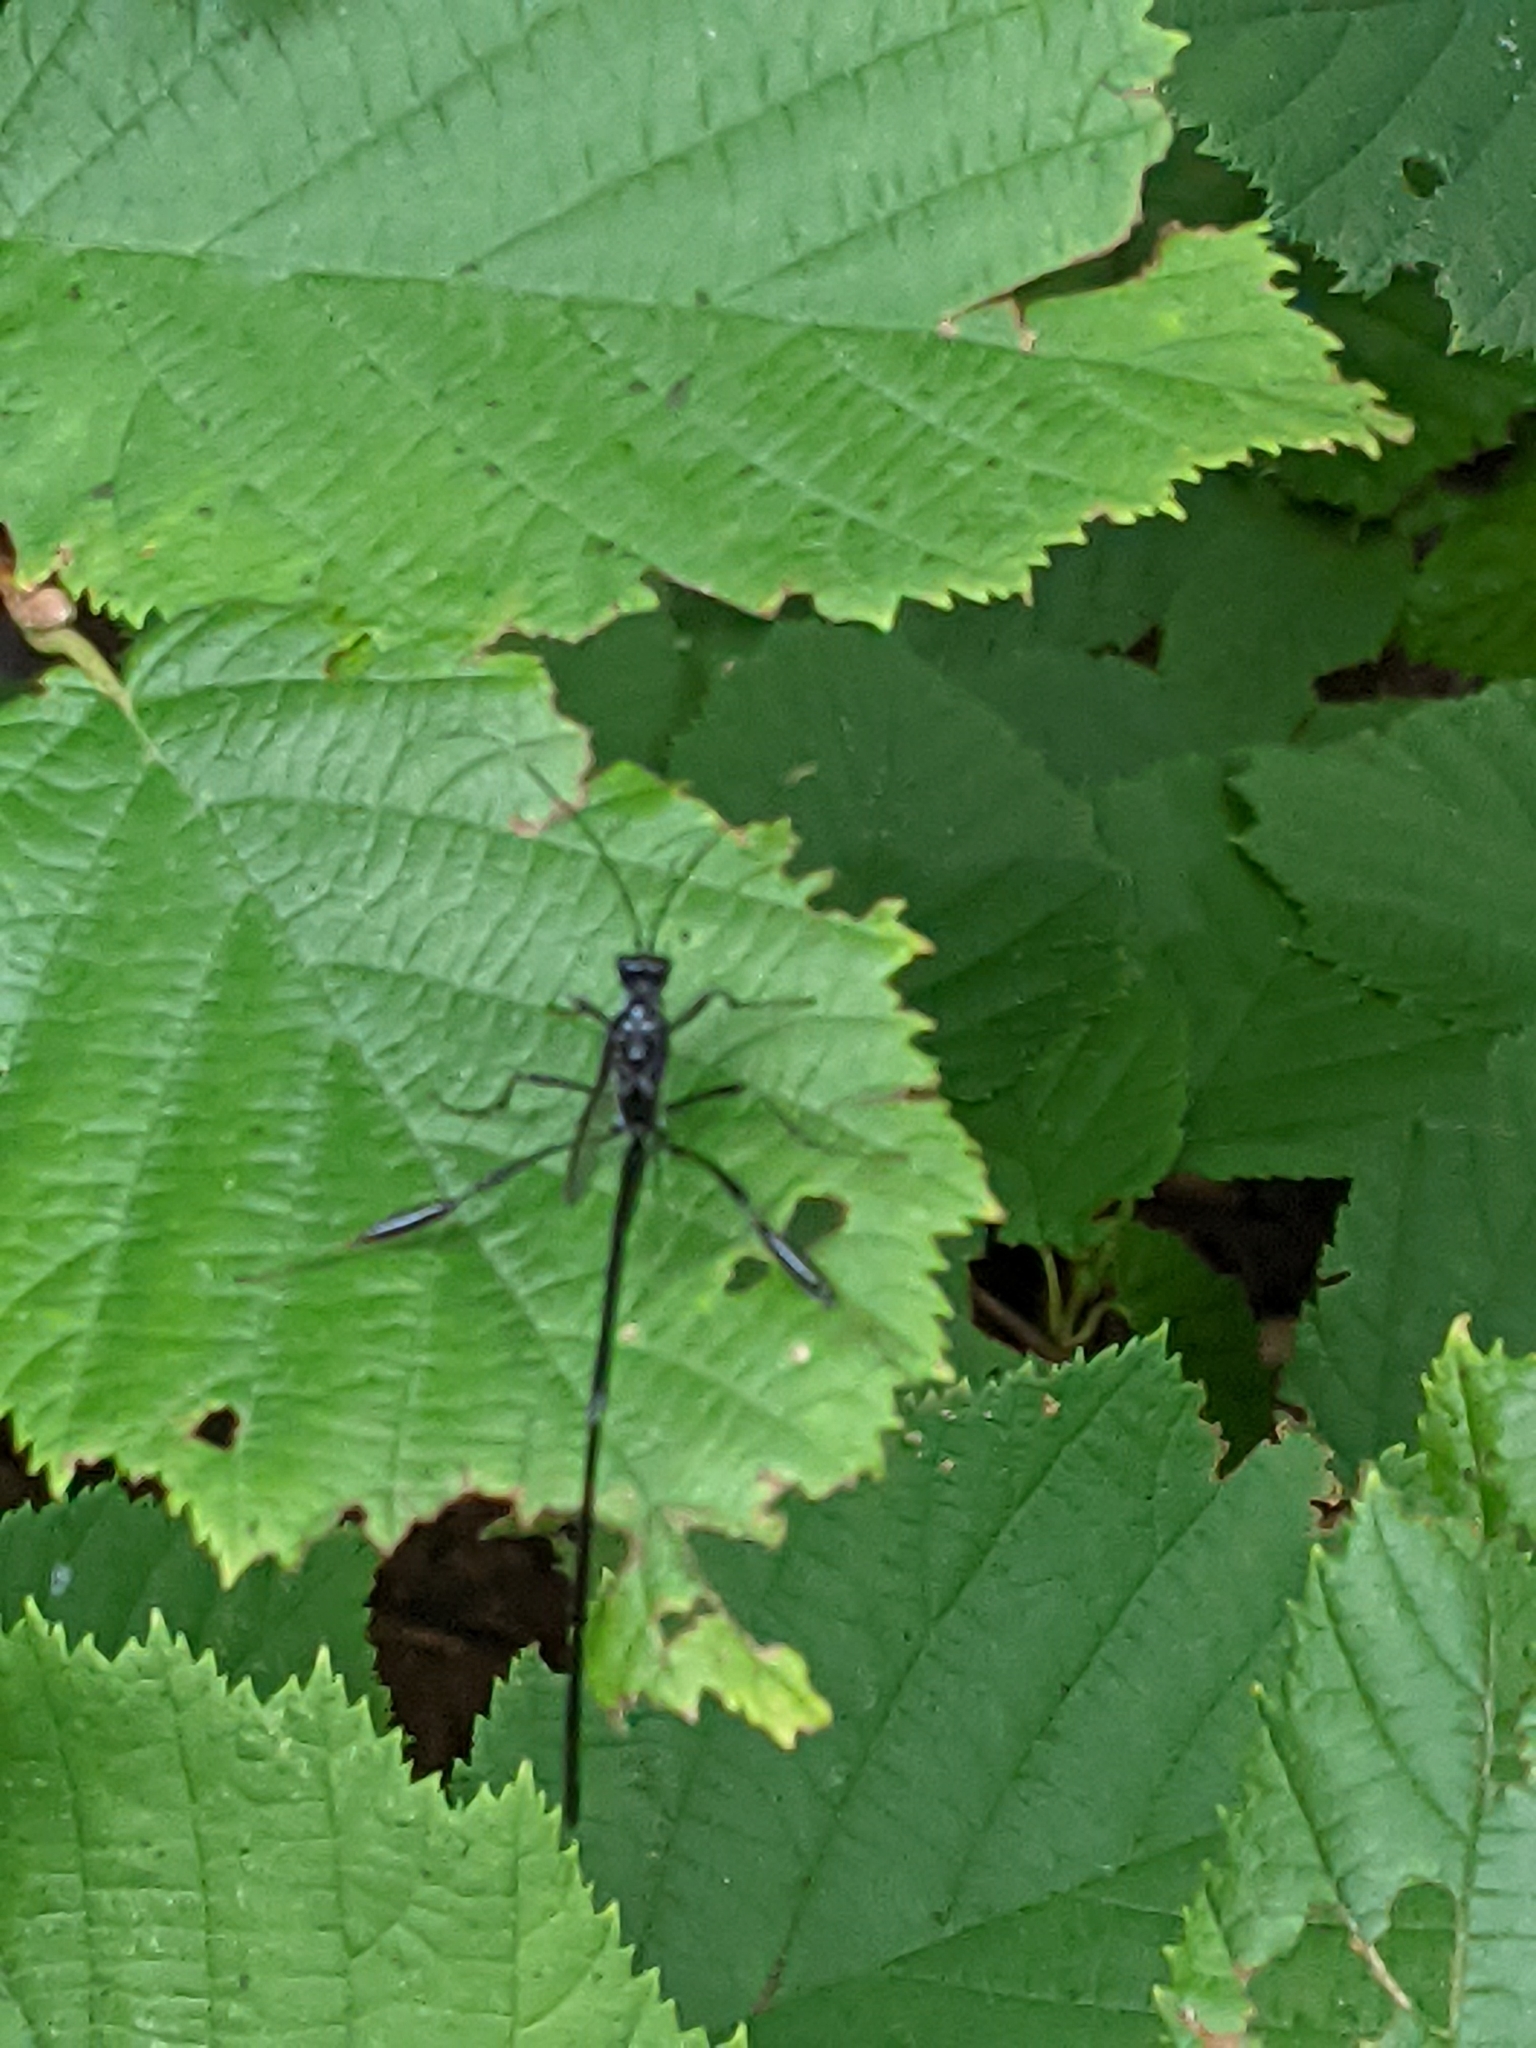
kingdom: Animalia
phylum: Arthropoda
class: Insecta
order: Hymenoptera
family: Pelecinidae
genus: Pelecinus
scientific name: Pelecinus polyturator
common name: American pelecinid wasp
